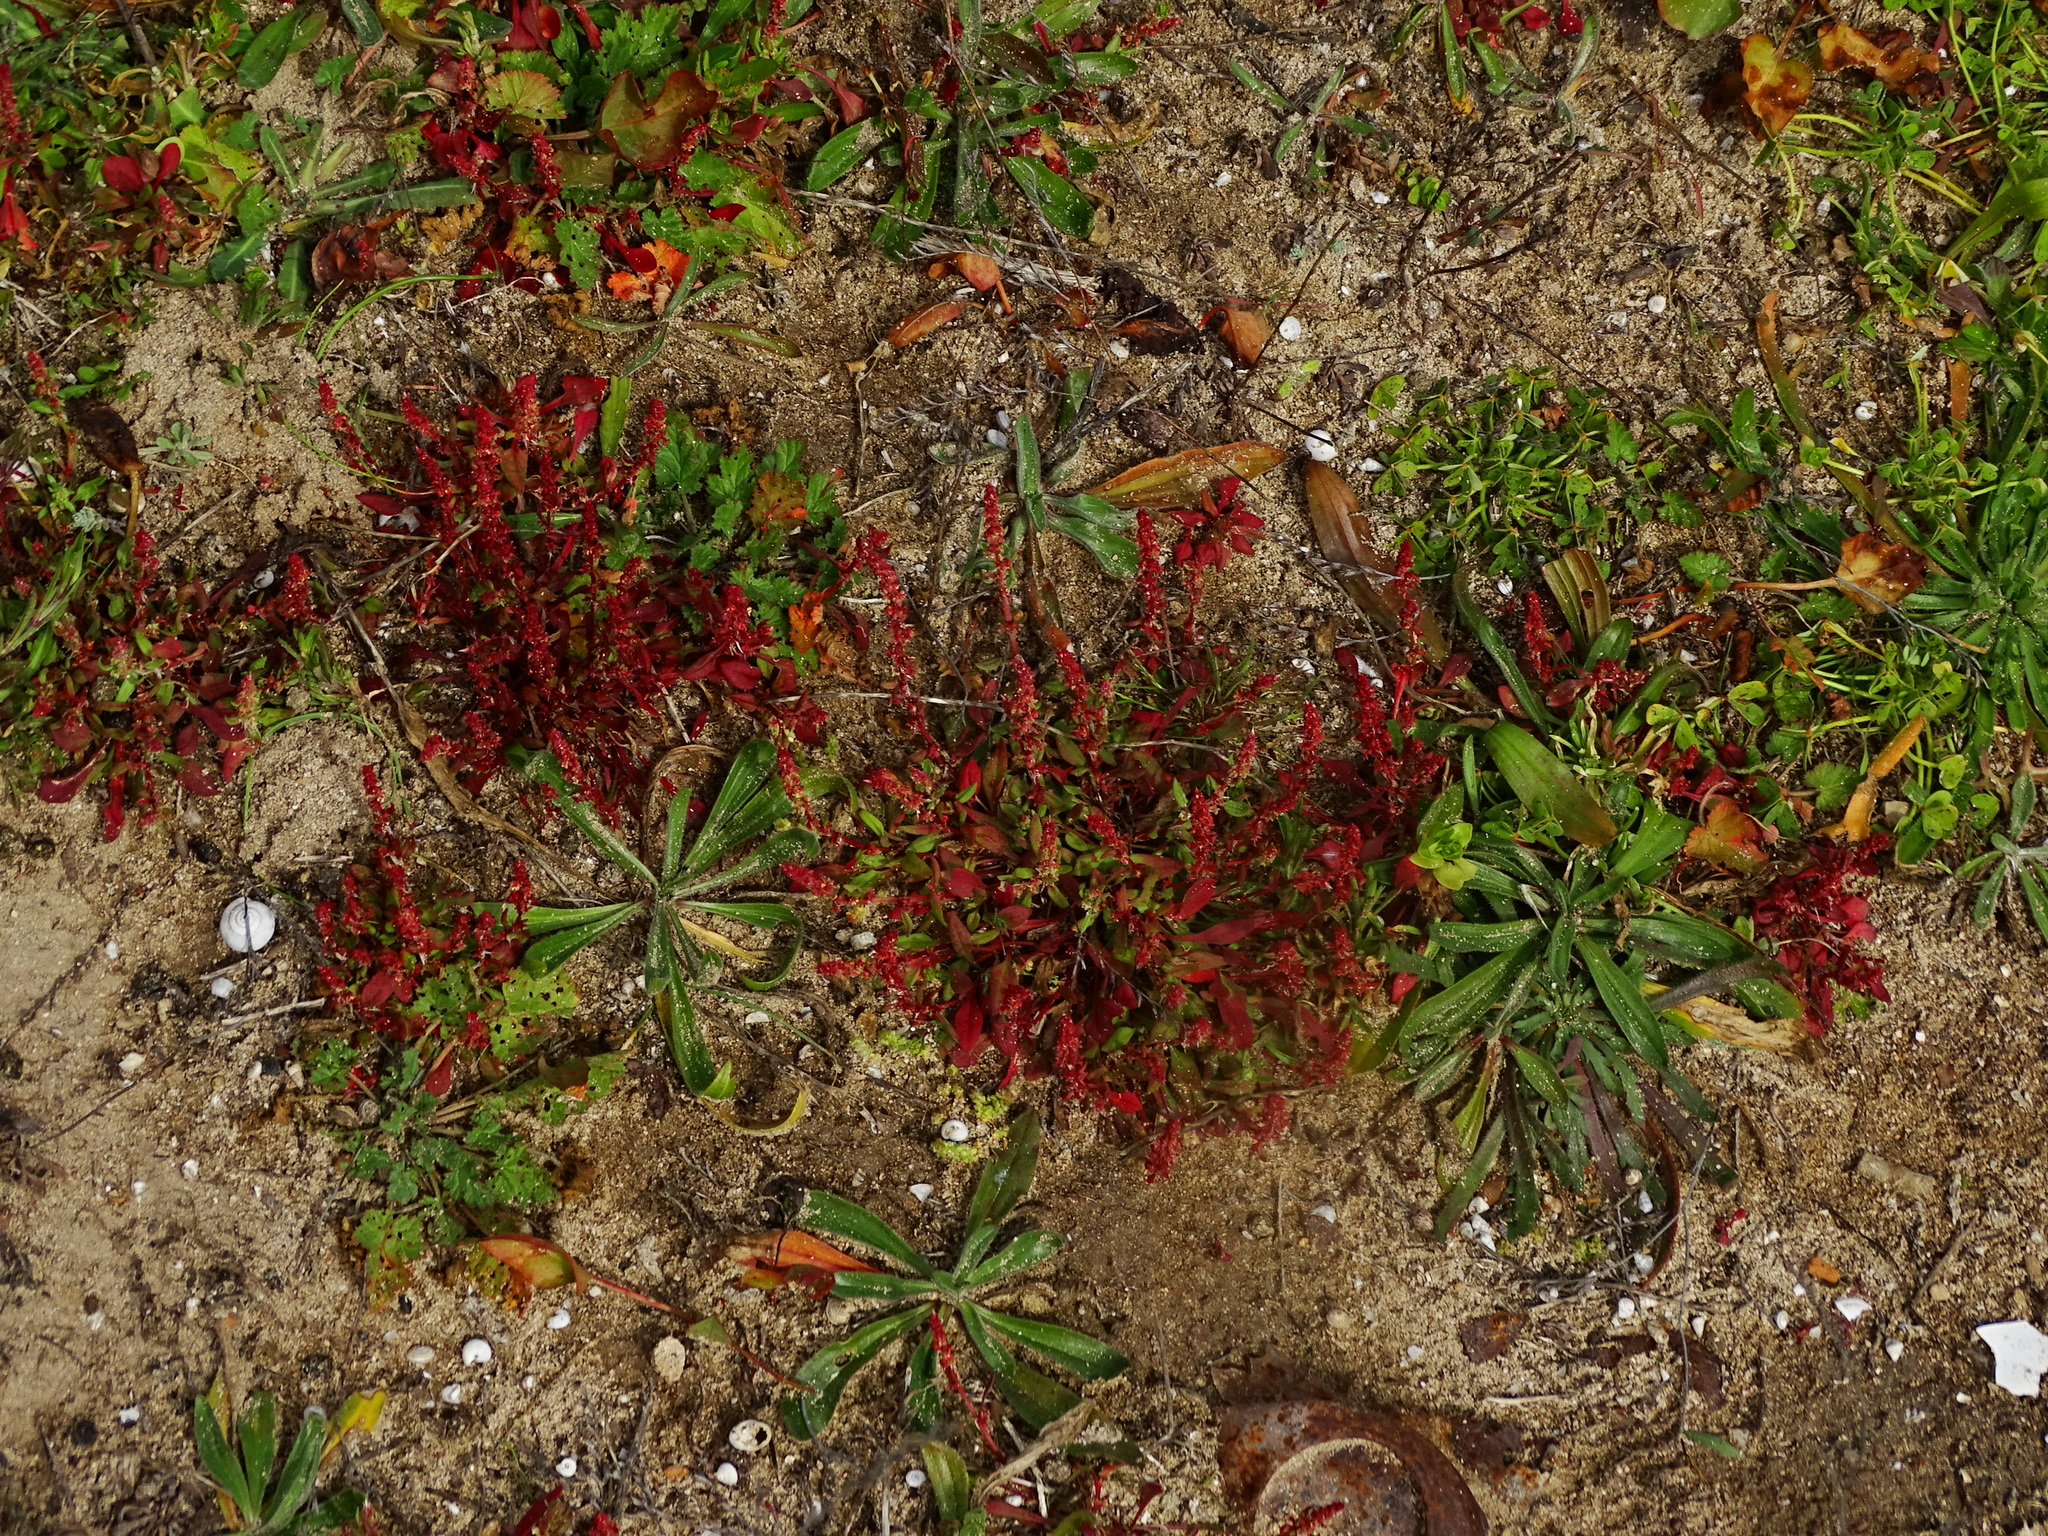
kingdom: Plantae
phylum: Tracheophyta
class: Magnoliopsida
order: Caryophyllales
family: Polygonaceae
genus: Rumex
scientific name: Rumex bucephalophorus
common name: Red dock
